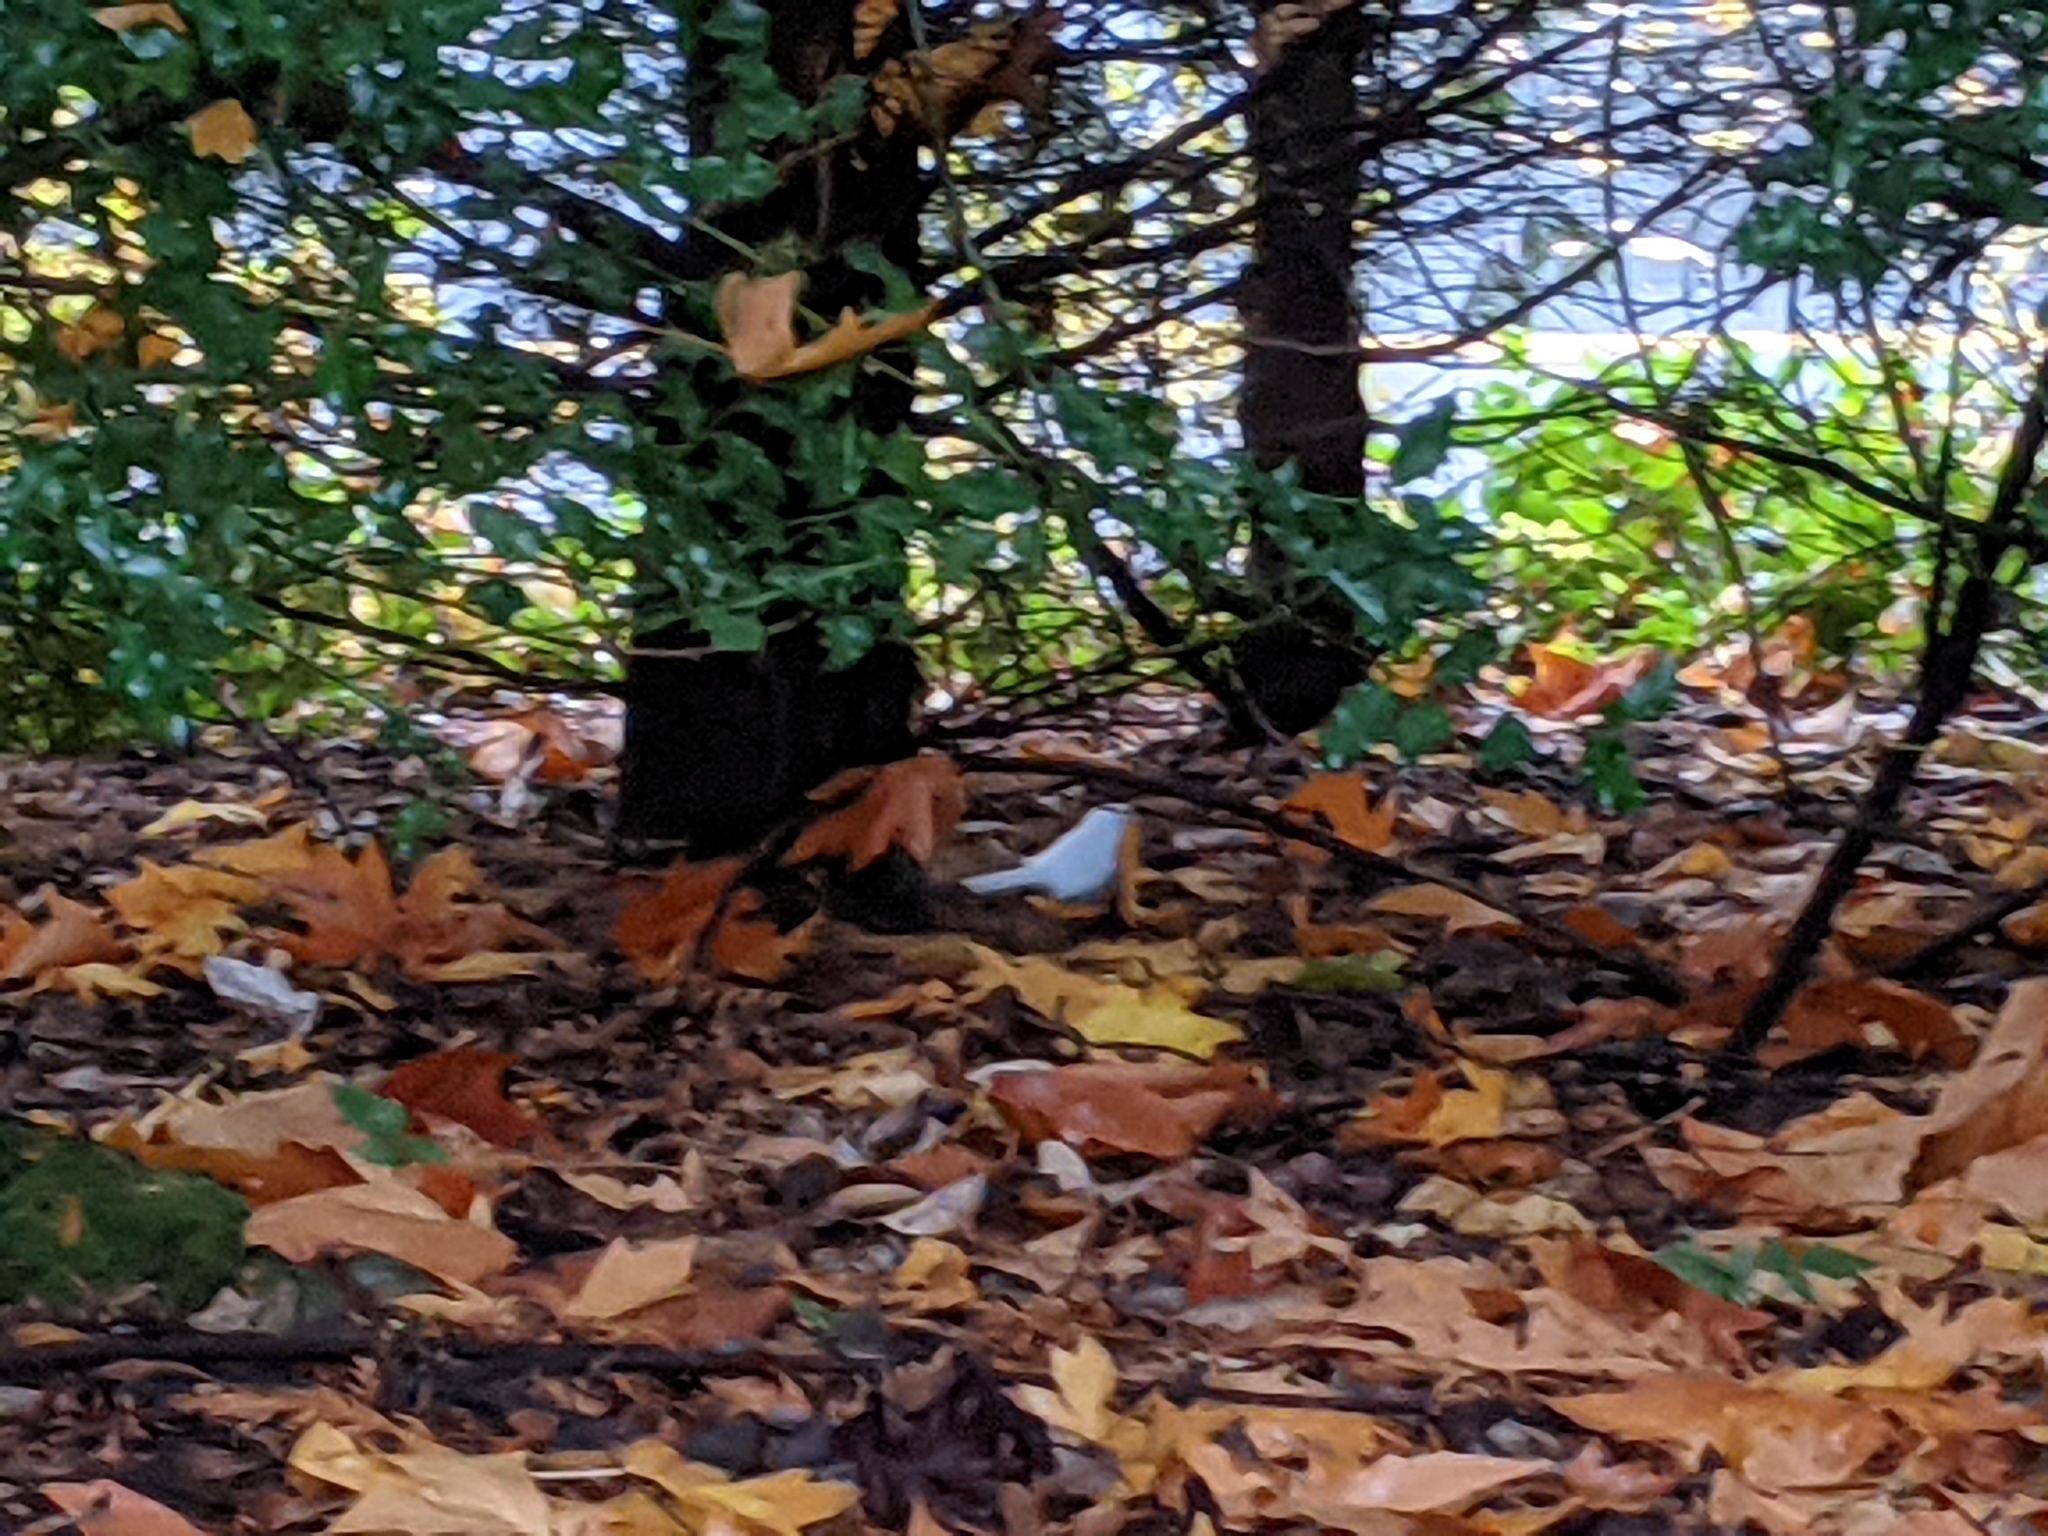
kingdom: Animalia
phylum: Chordata
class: Aves
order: Passeriformes
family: Passerellidae
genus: Junco
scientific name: Junco hyemalis
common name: Dark-eyed junco
